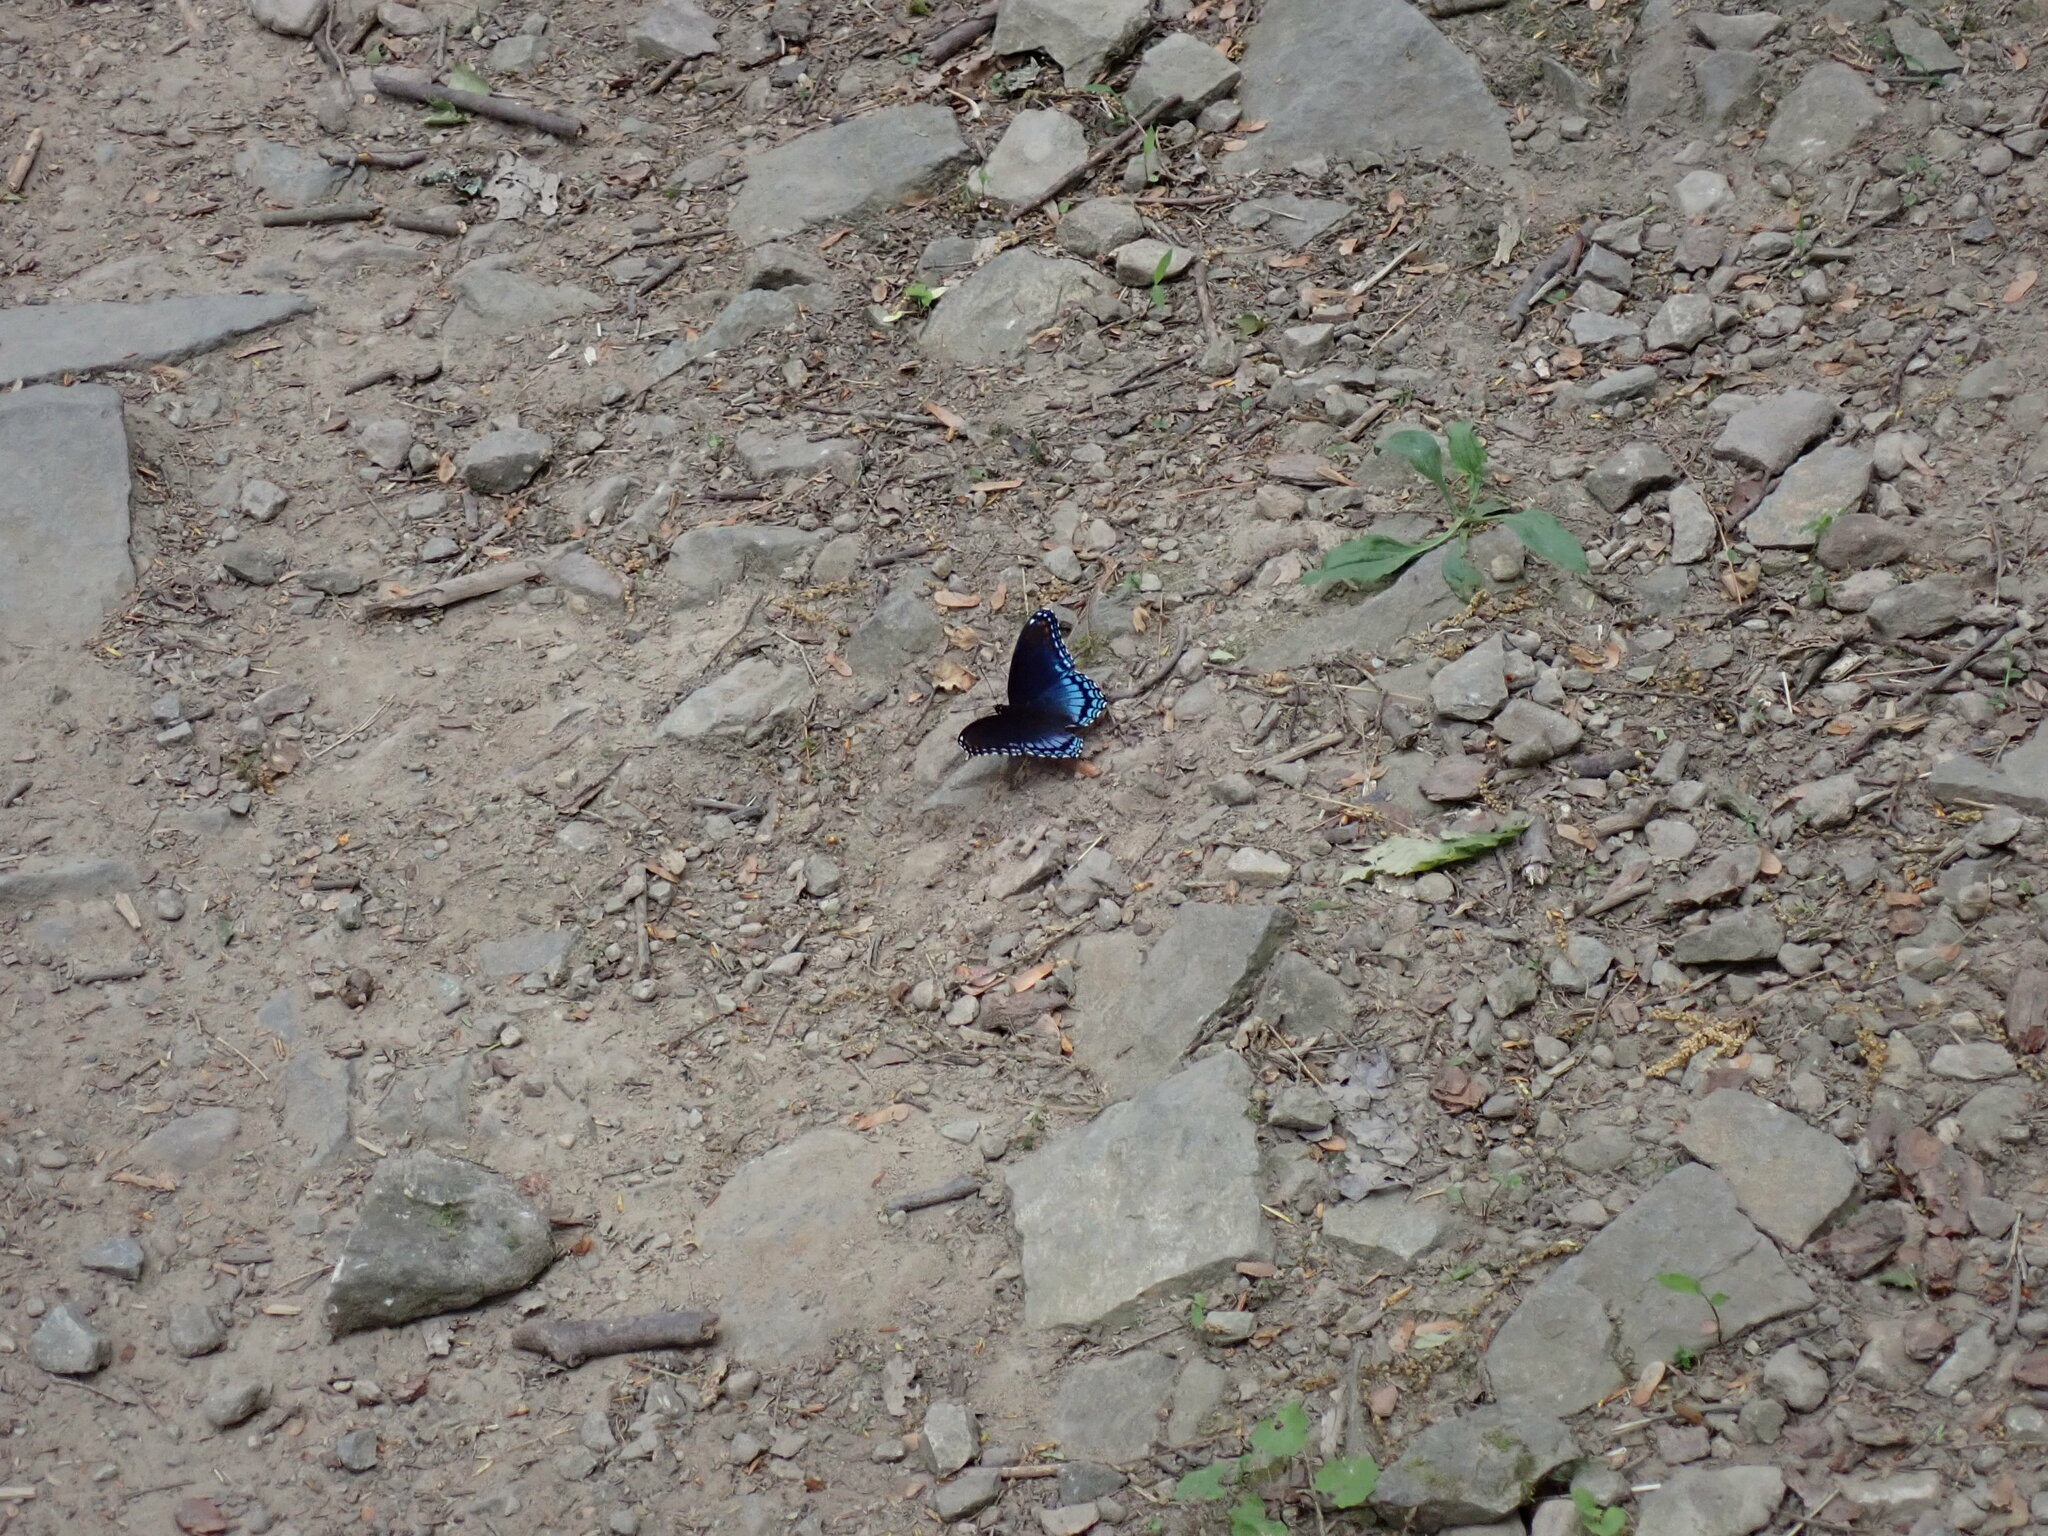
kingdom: Animalia
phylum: Arthropoda
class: Insecta
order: Lepidoptera
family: Nymphalidae
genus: Limenitis
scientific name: Limenitis arthemis
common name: Red-spotted admiral
